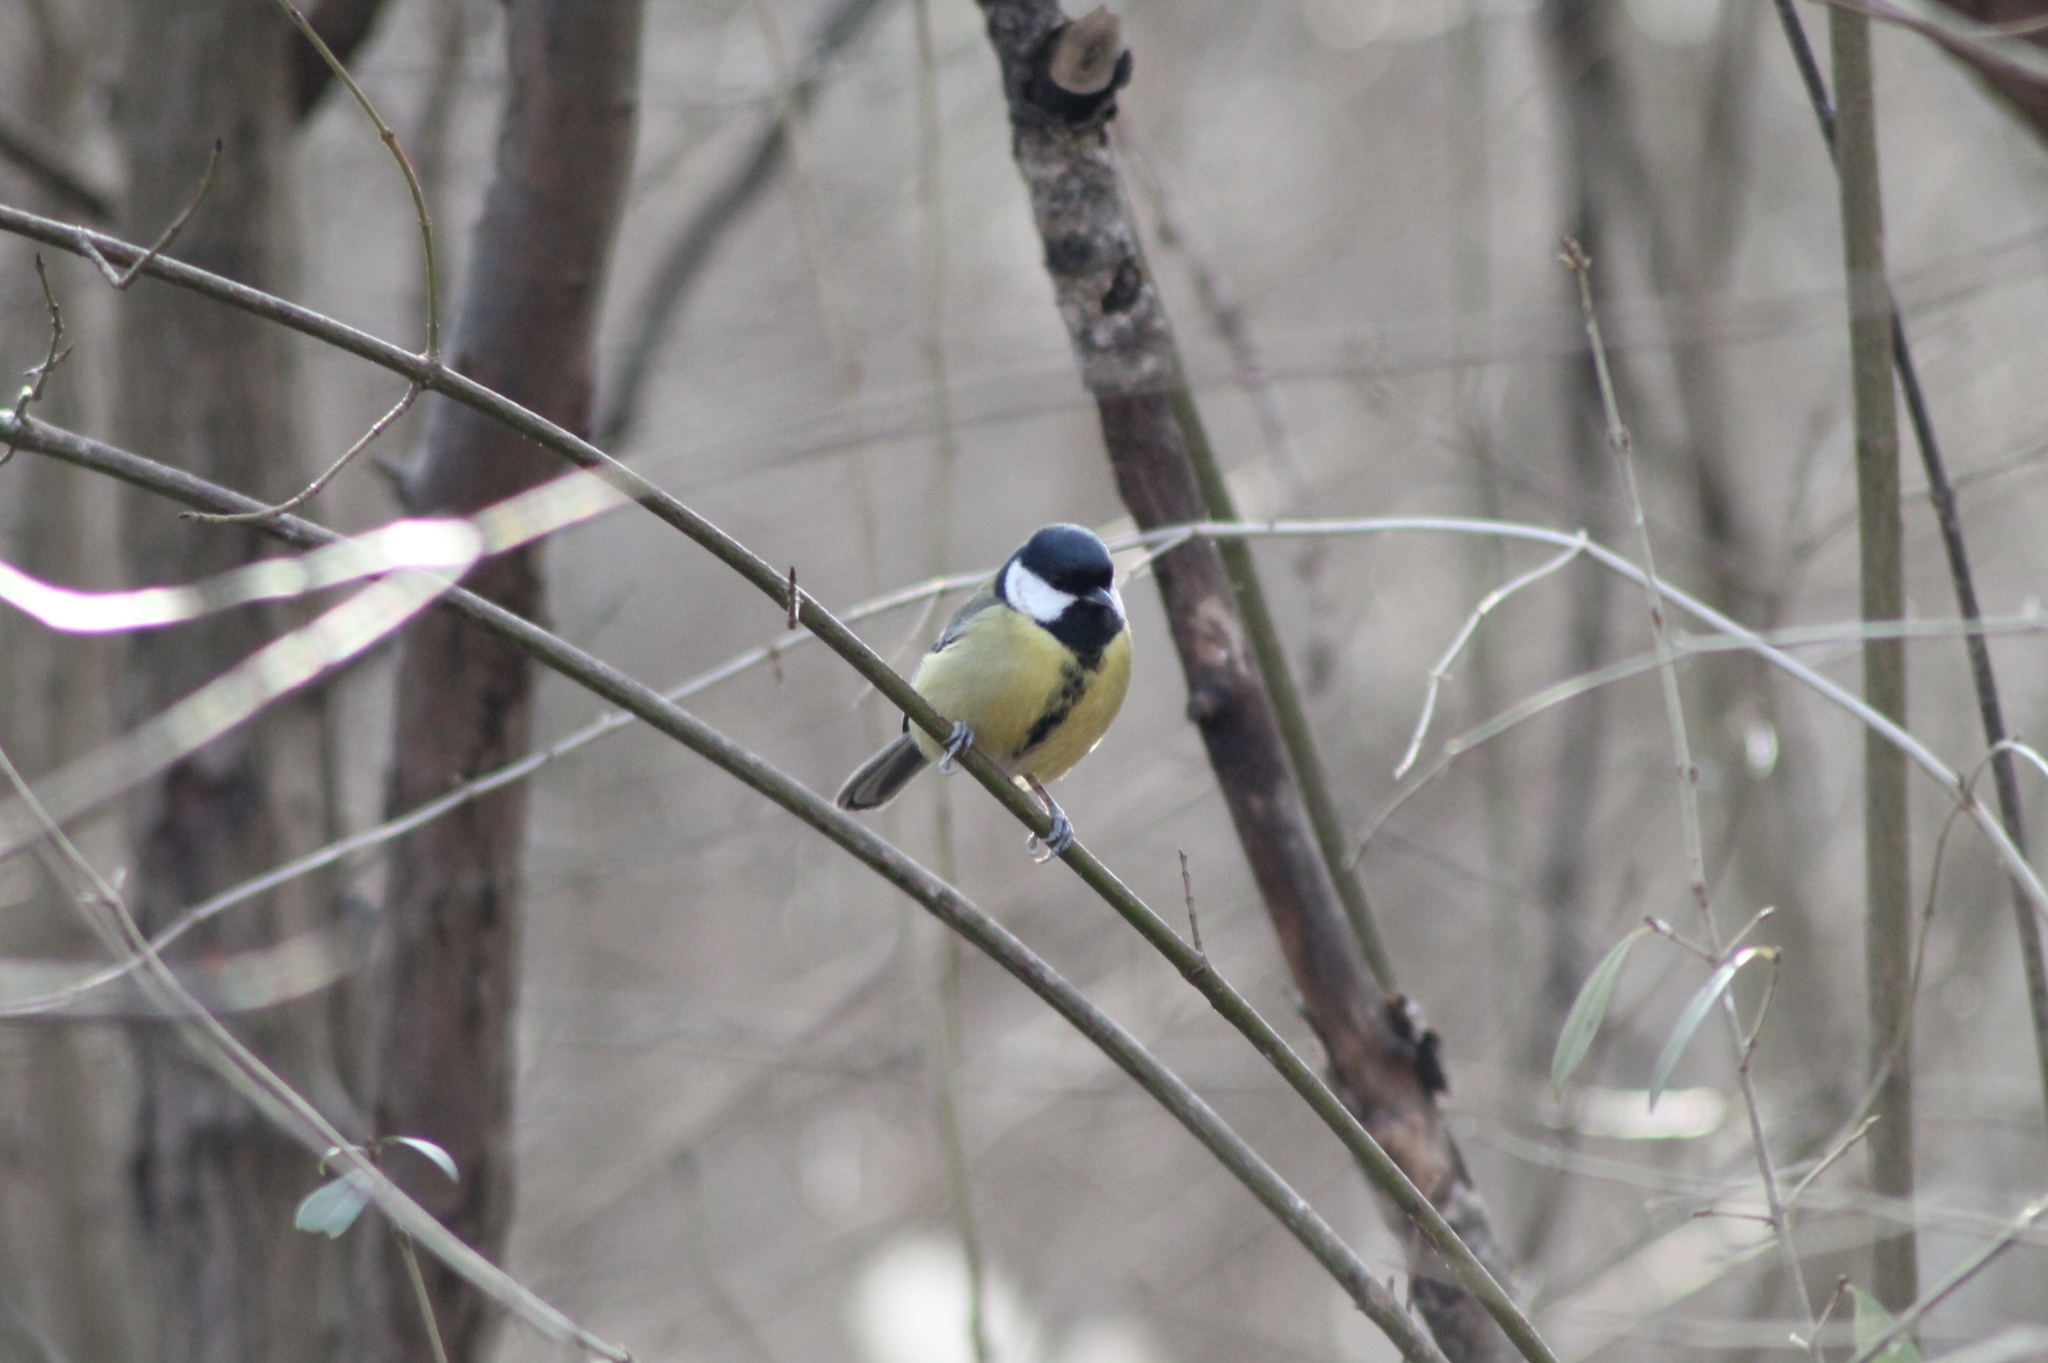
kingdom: Animalia
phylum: Chordata
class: Aves
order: Passeriformes
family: Paridae
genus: Parus
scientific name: Parus major
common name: Great tit
